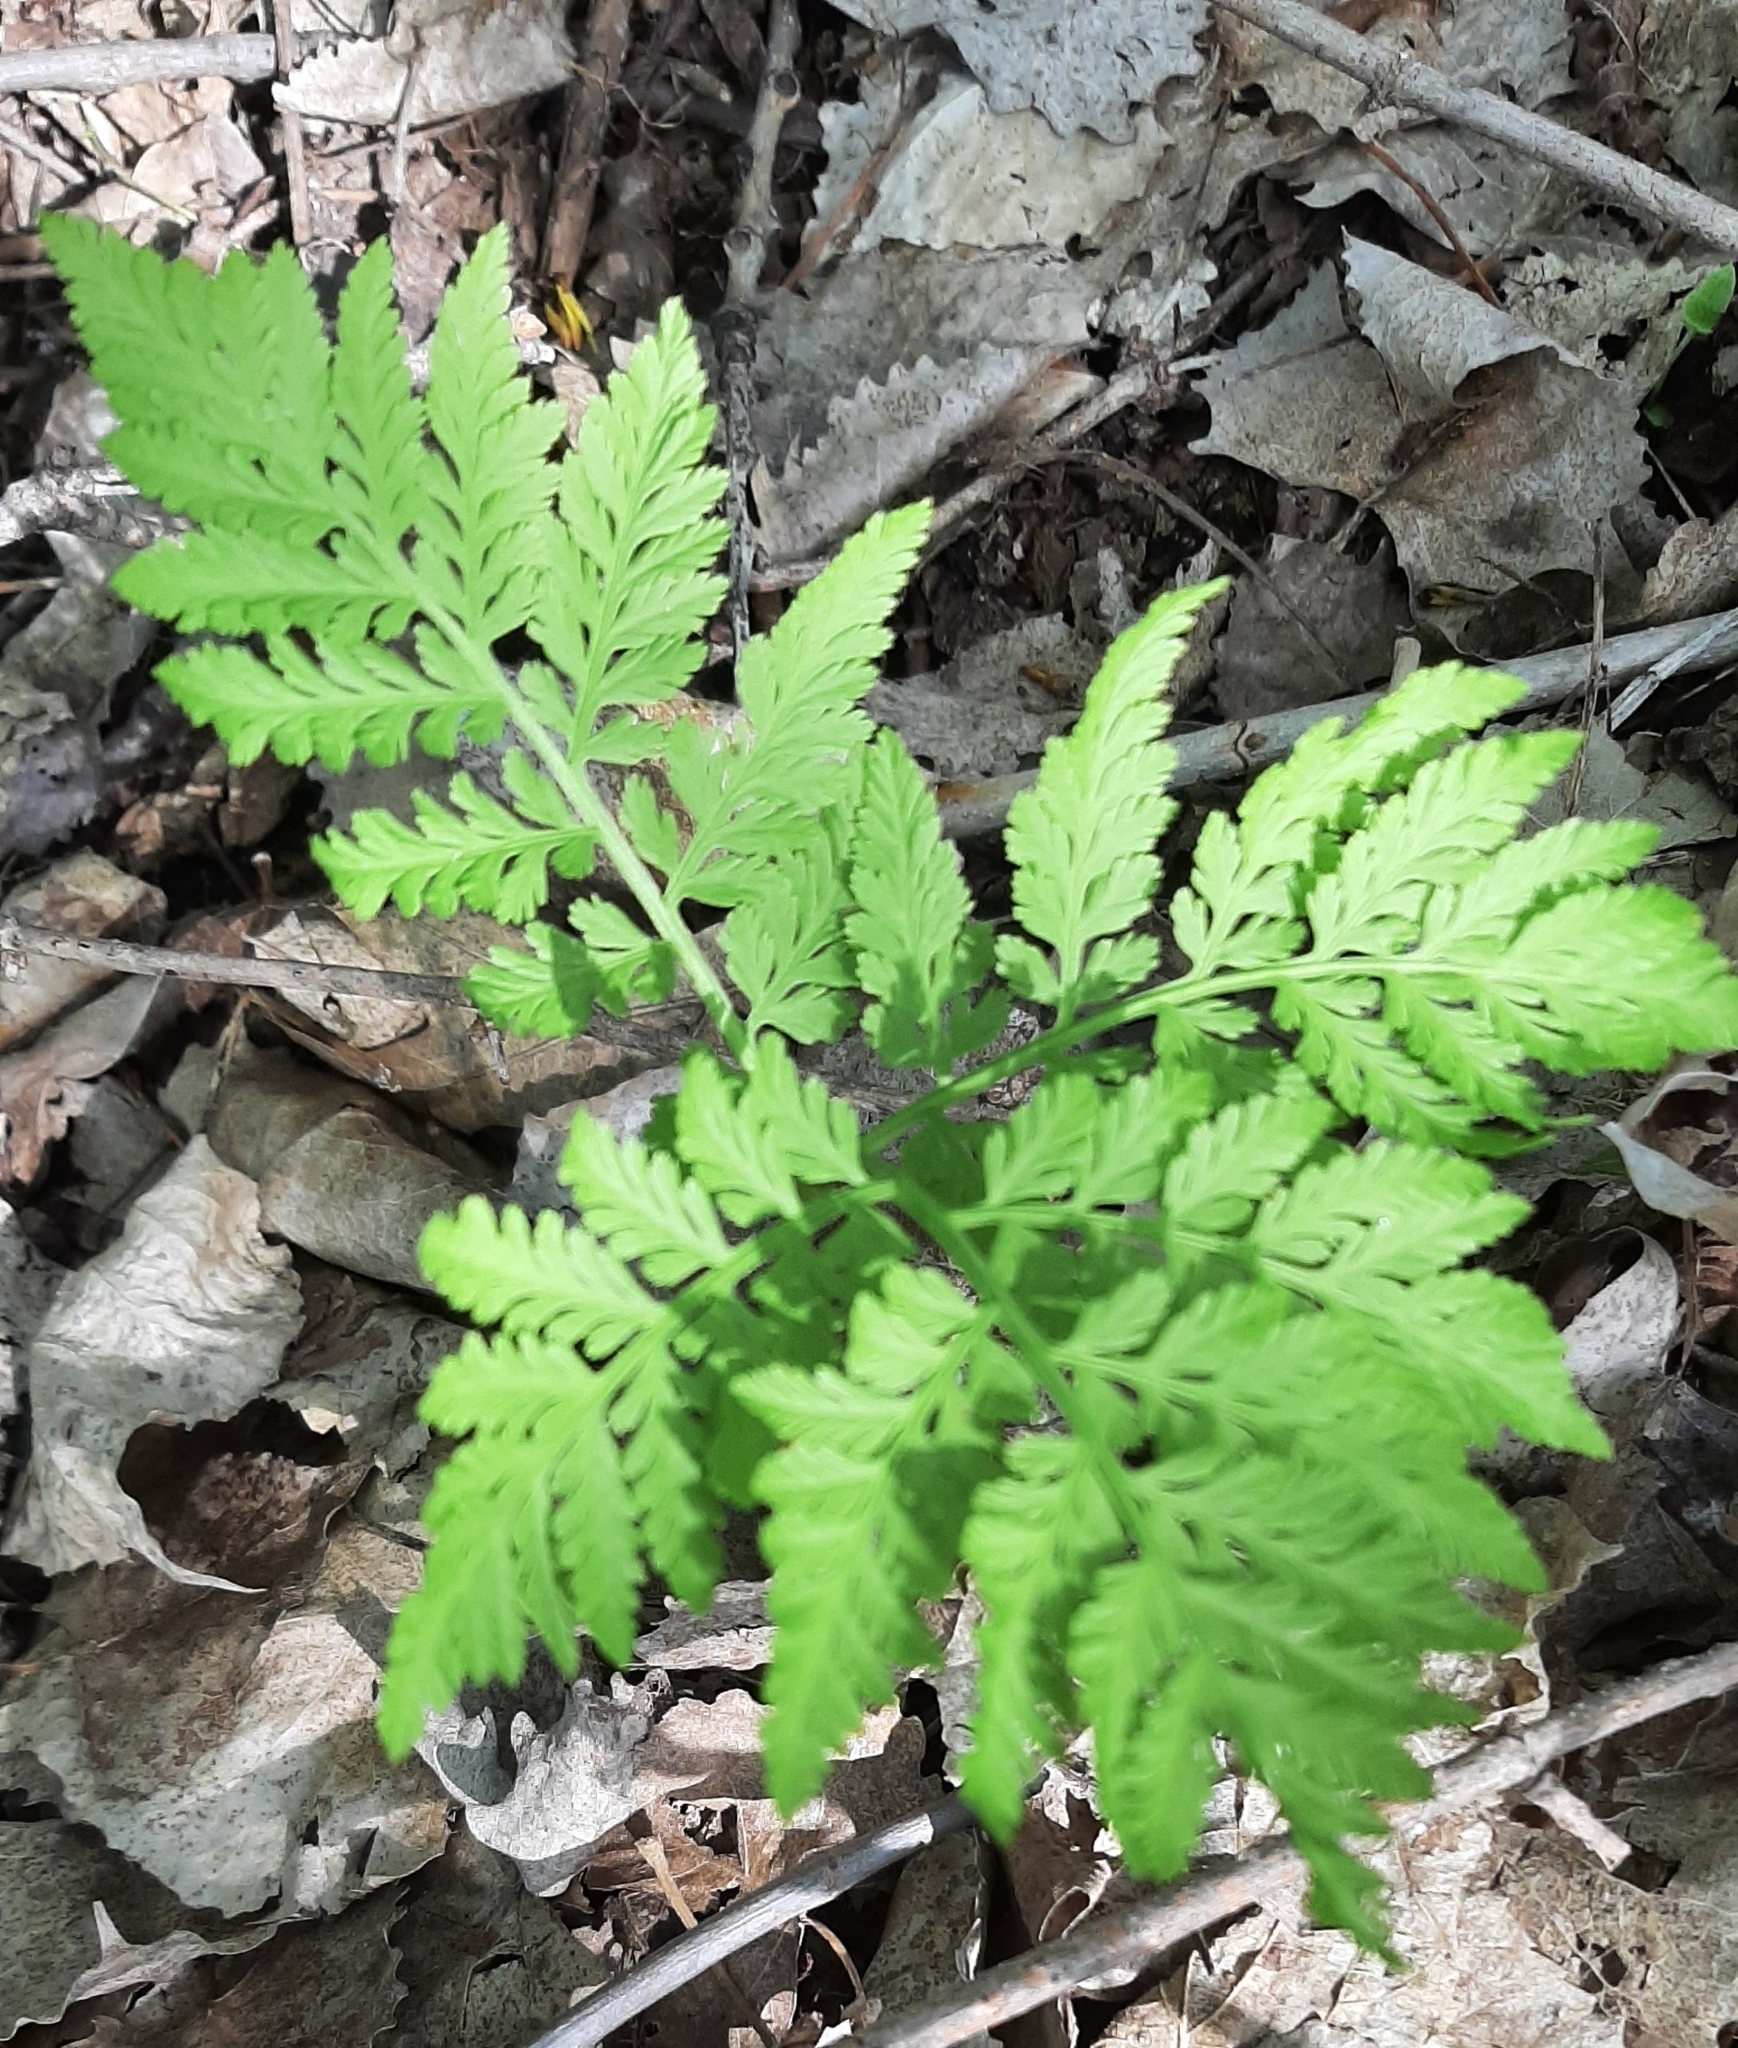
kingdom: Plantae
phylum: Tracheophyta
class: Polypodiopsida
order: Ophioglossales
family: Ophioglossaceae
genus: Botrypus
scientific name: Botrypus virginianus
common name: Common grapefern
